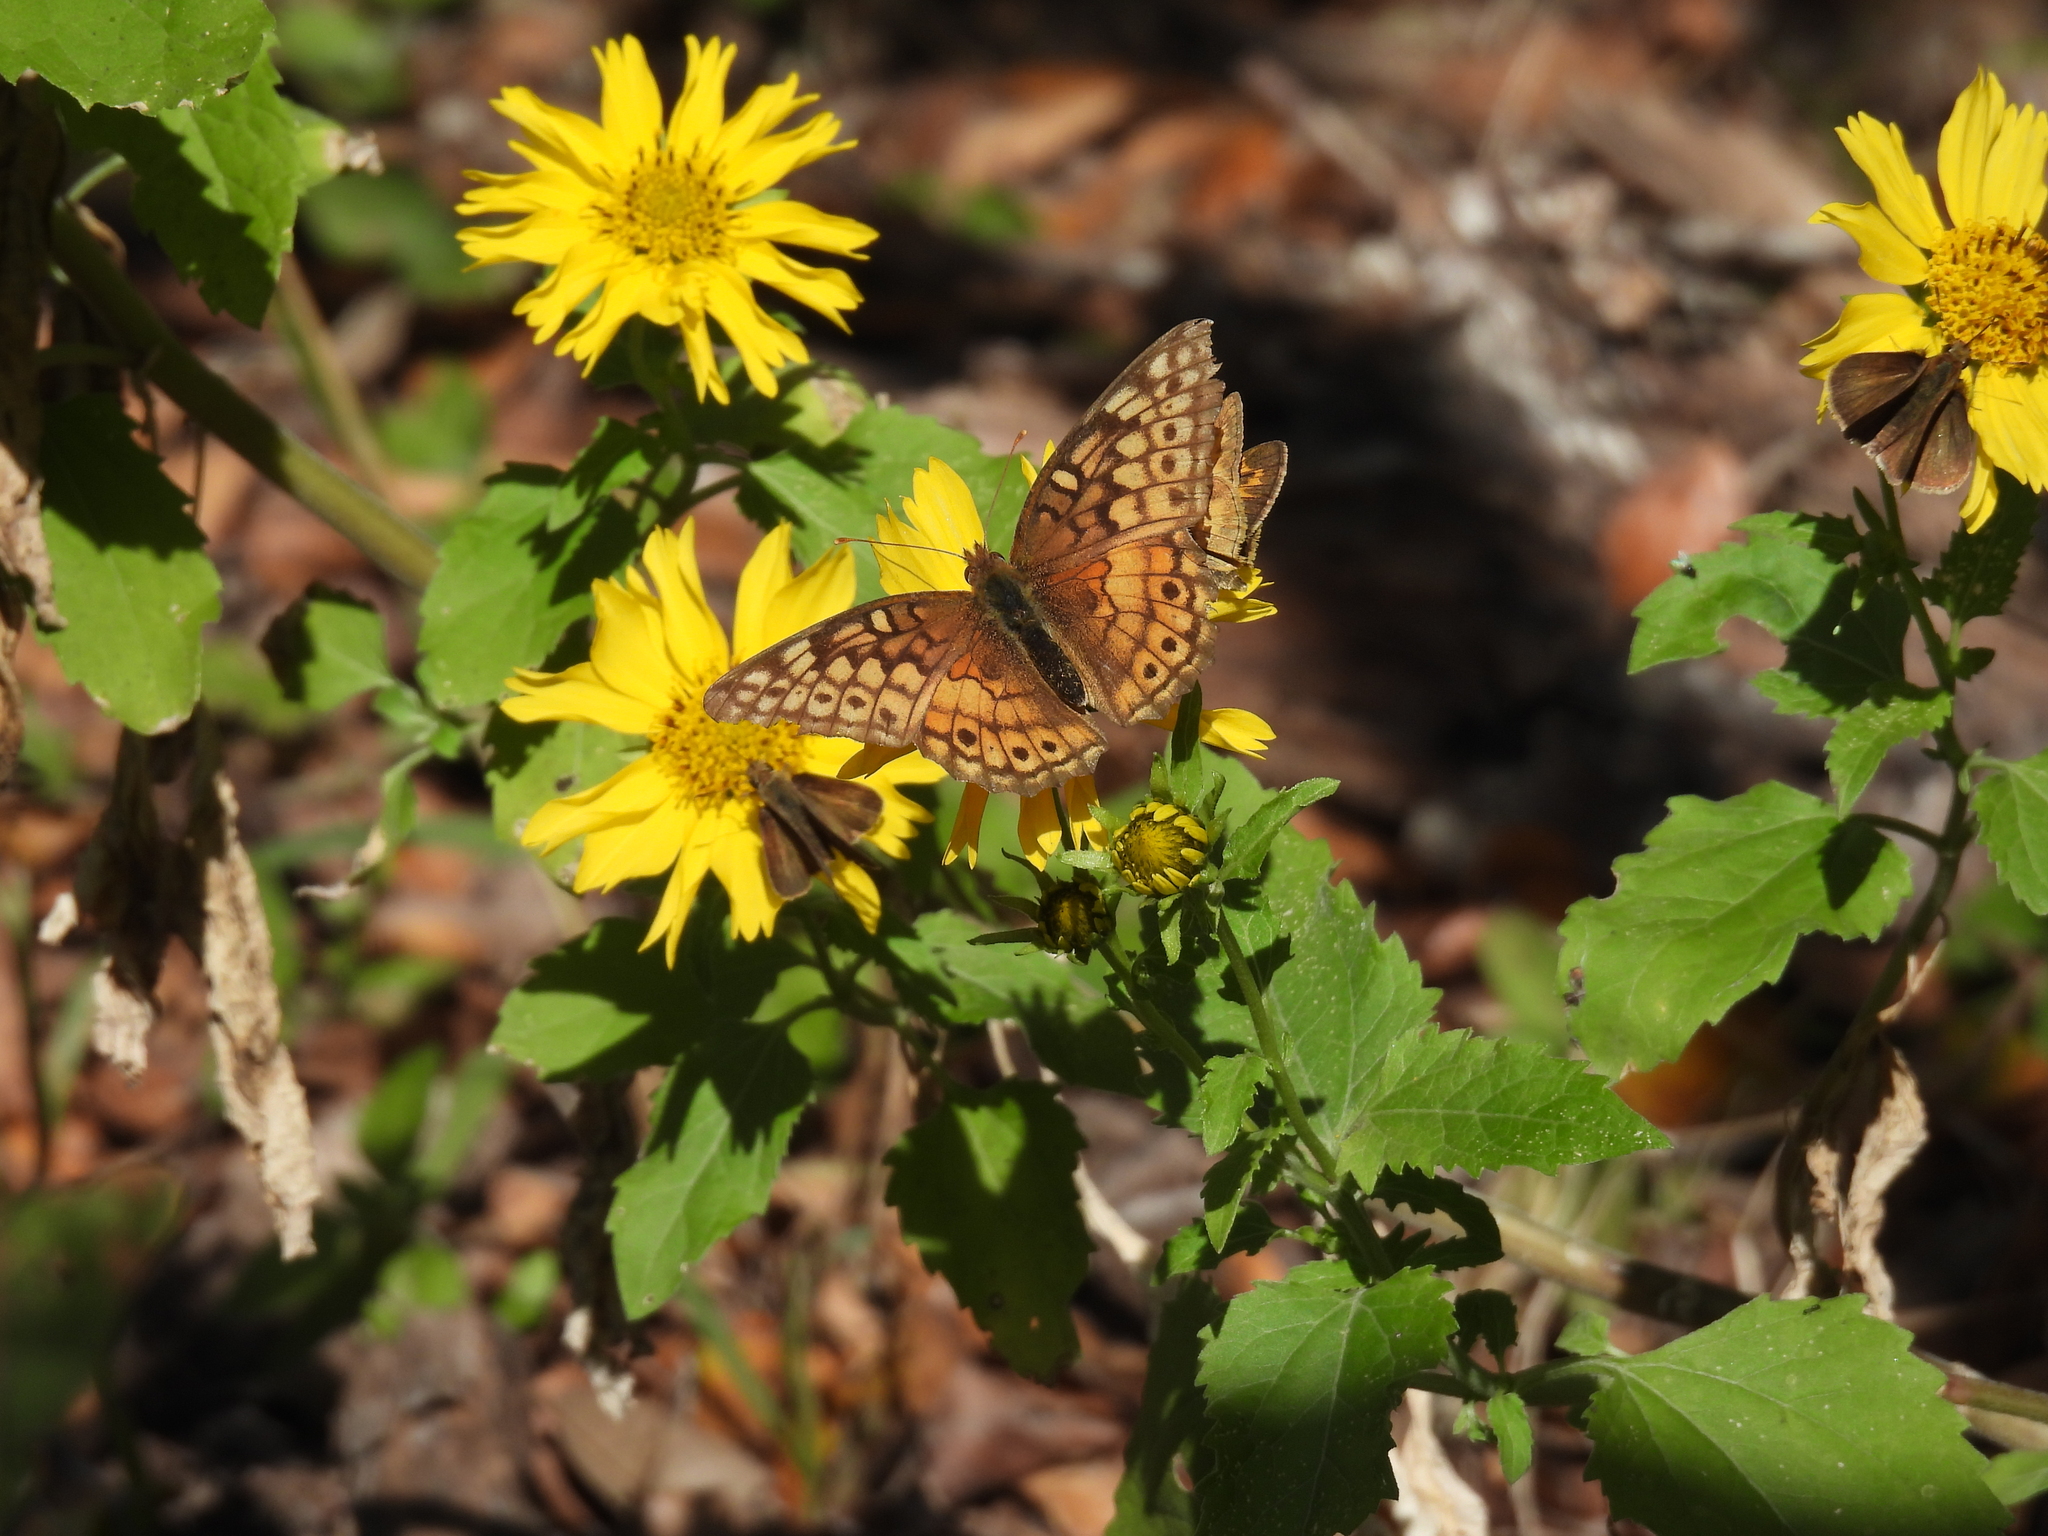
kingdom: Animalia
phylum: Arthropoda
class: Insecta
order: Lepidoptera
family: Nymphalidae
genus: Euptoieta
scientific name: Euptoieta claudia
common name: Variegated fritillary
